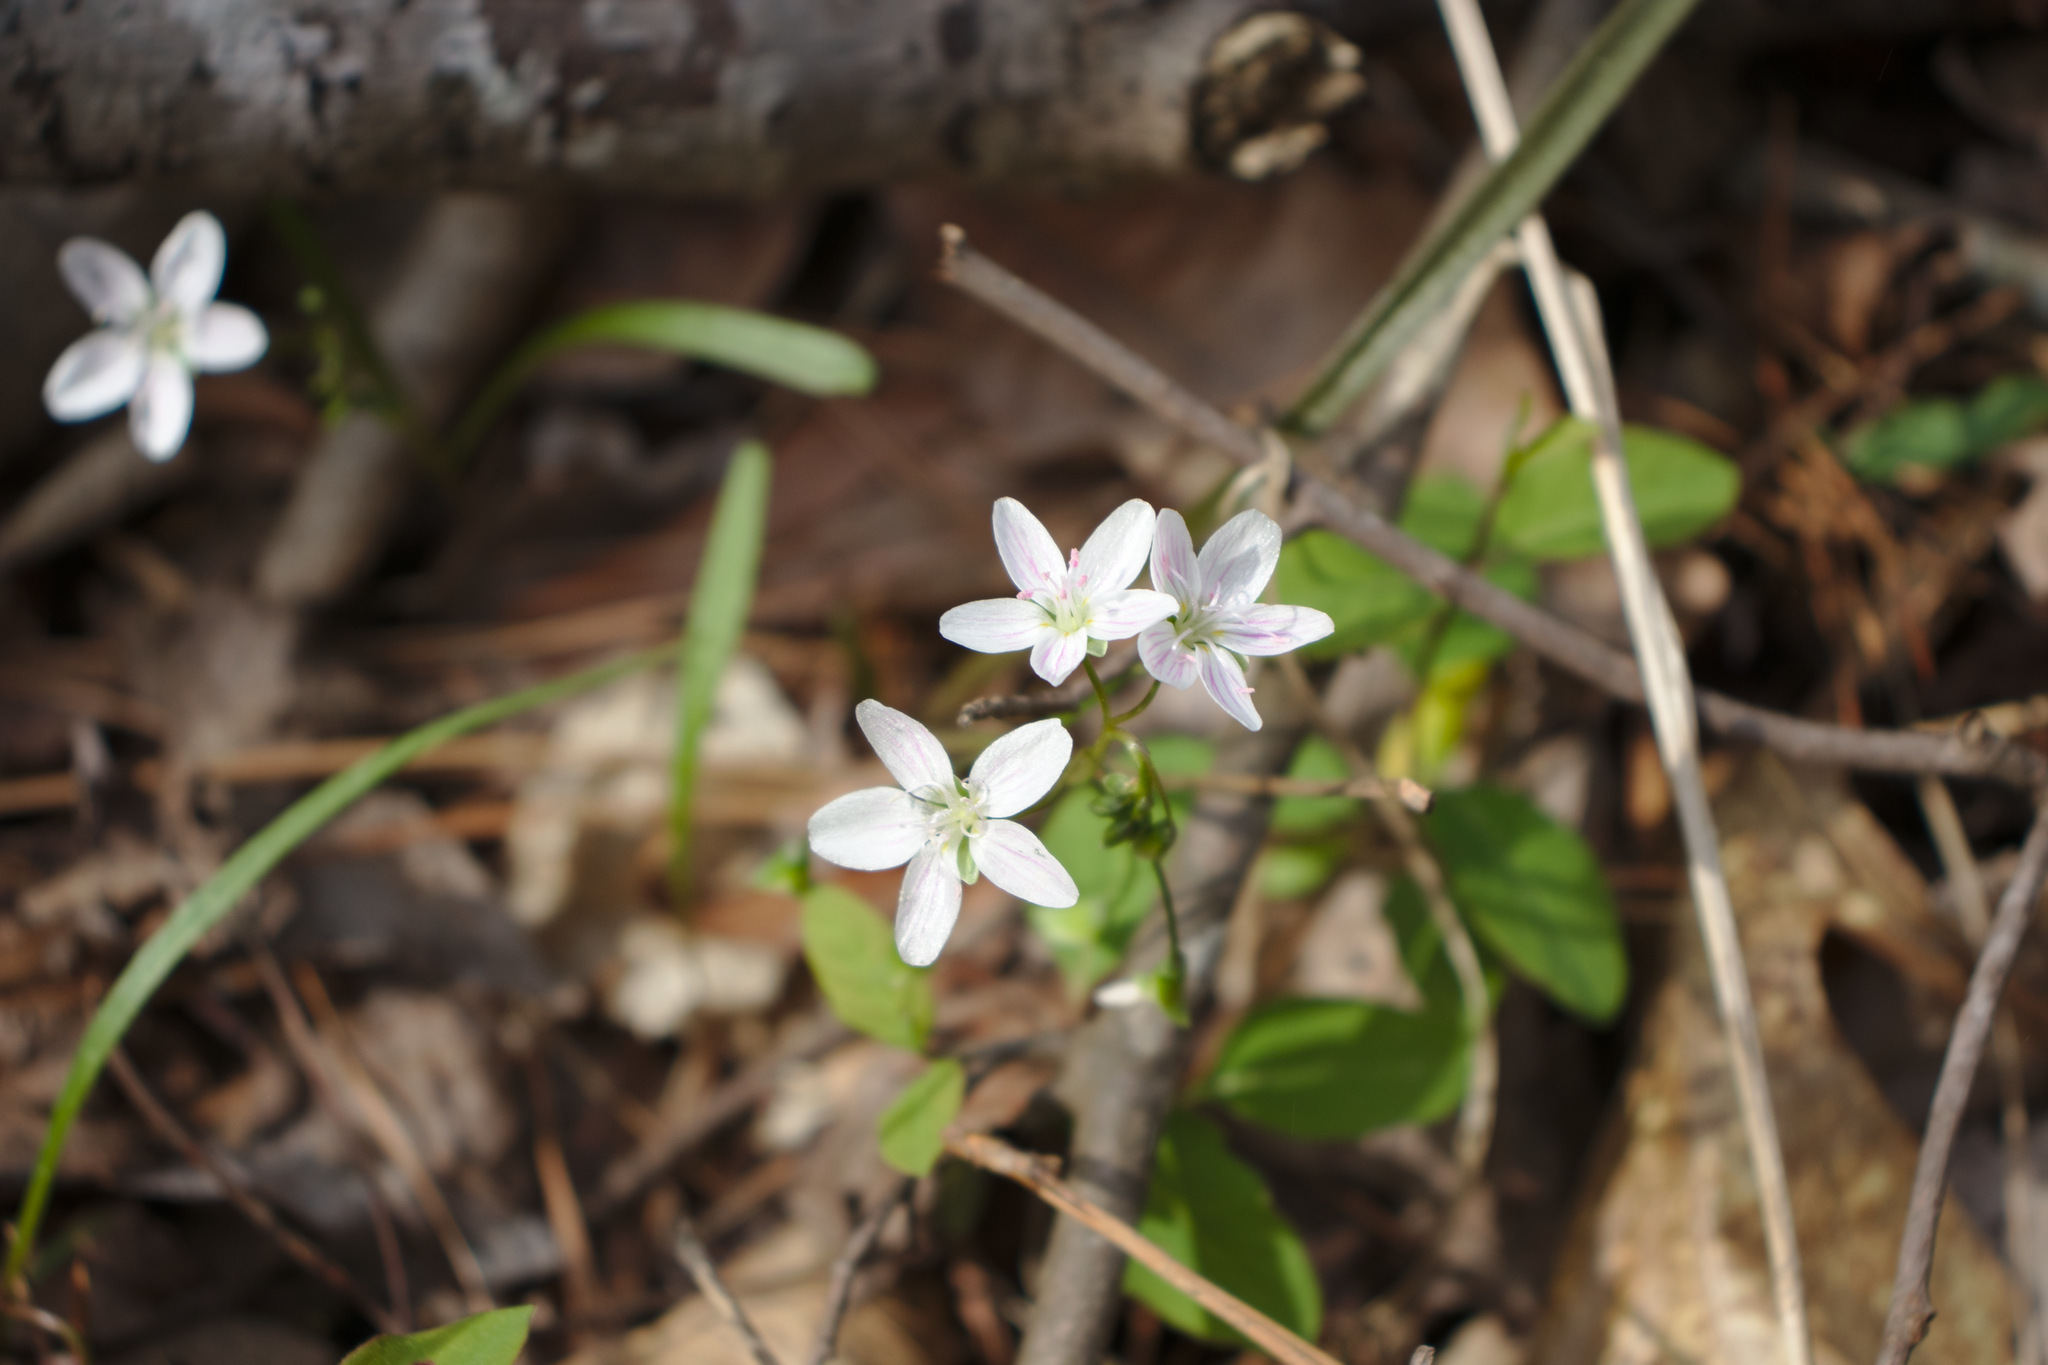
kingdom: Plantae
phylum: Tracheophyta
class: Magnoliopsida
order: Caryophyllales
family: Montiaceae
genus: Claytonia
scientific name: Claytonia virginica
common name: Virginia springbeauty
